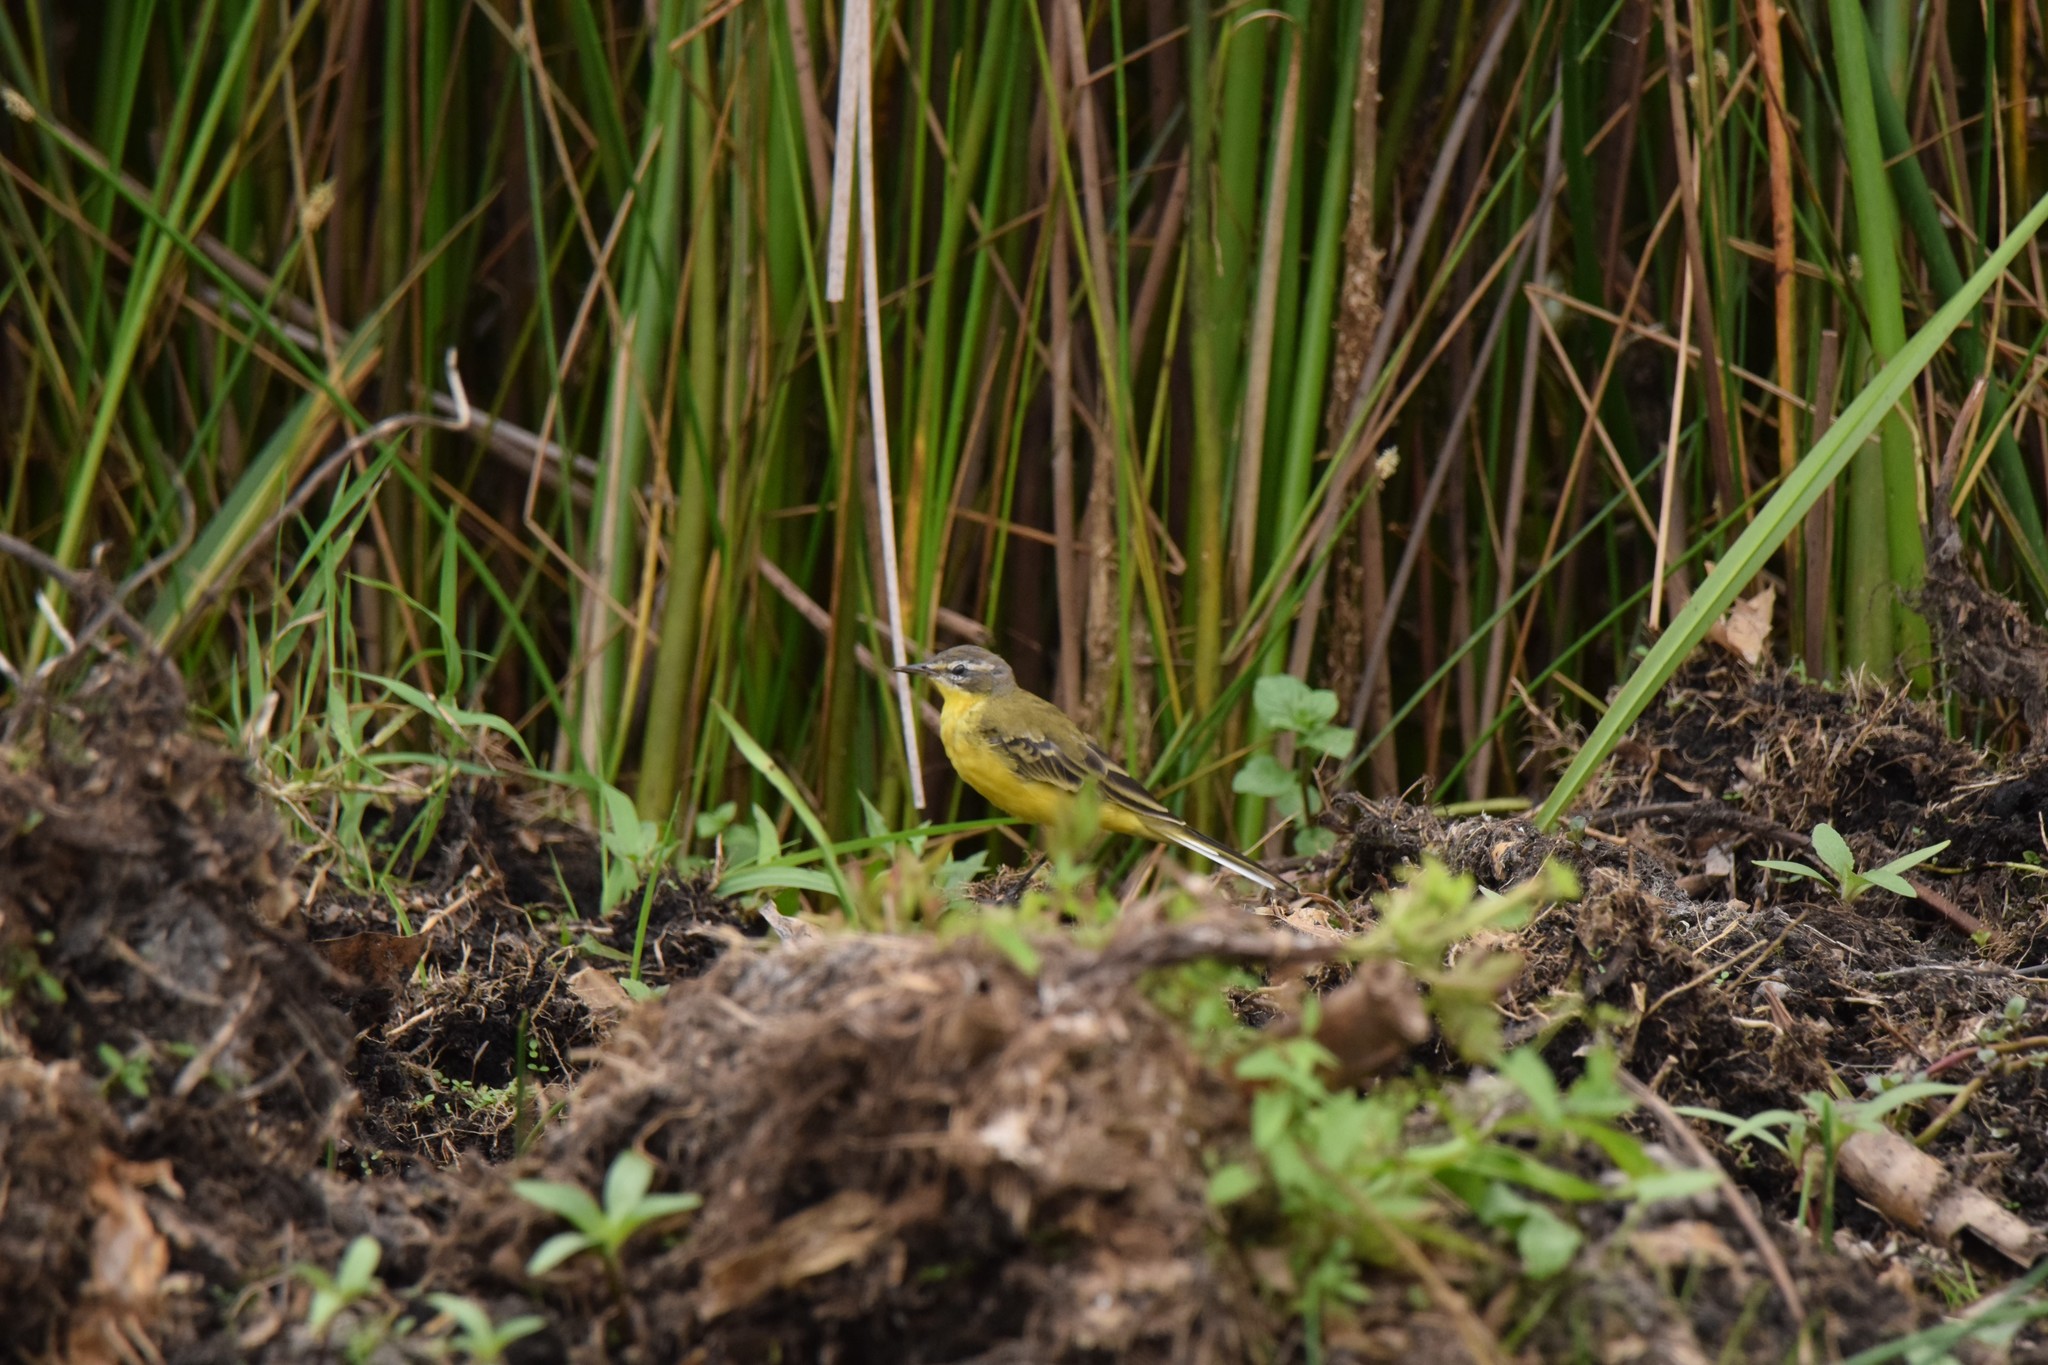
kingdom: Animalia
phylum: Chordata
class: Aves
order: Passeriformes
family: Motacillidae
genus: Motacilla
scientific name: Motacilla flava
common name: Western yellow wagtail
